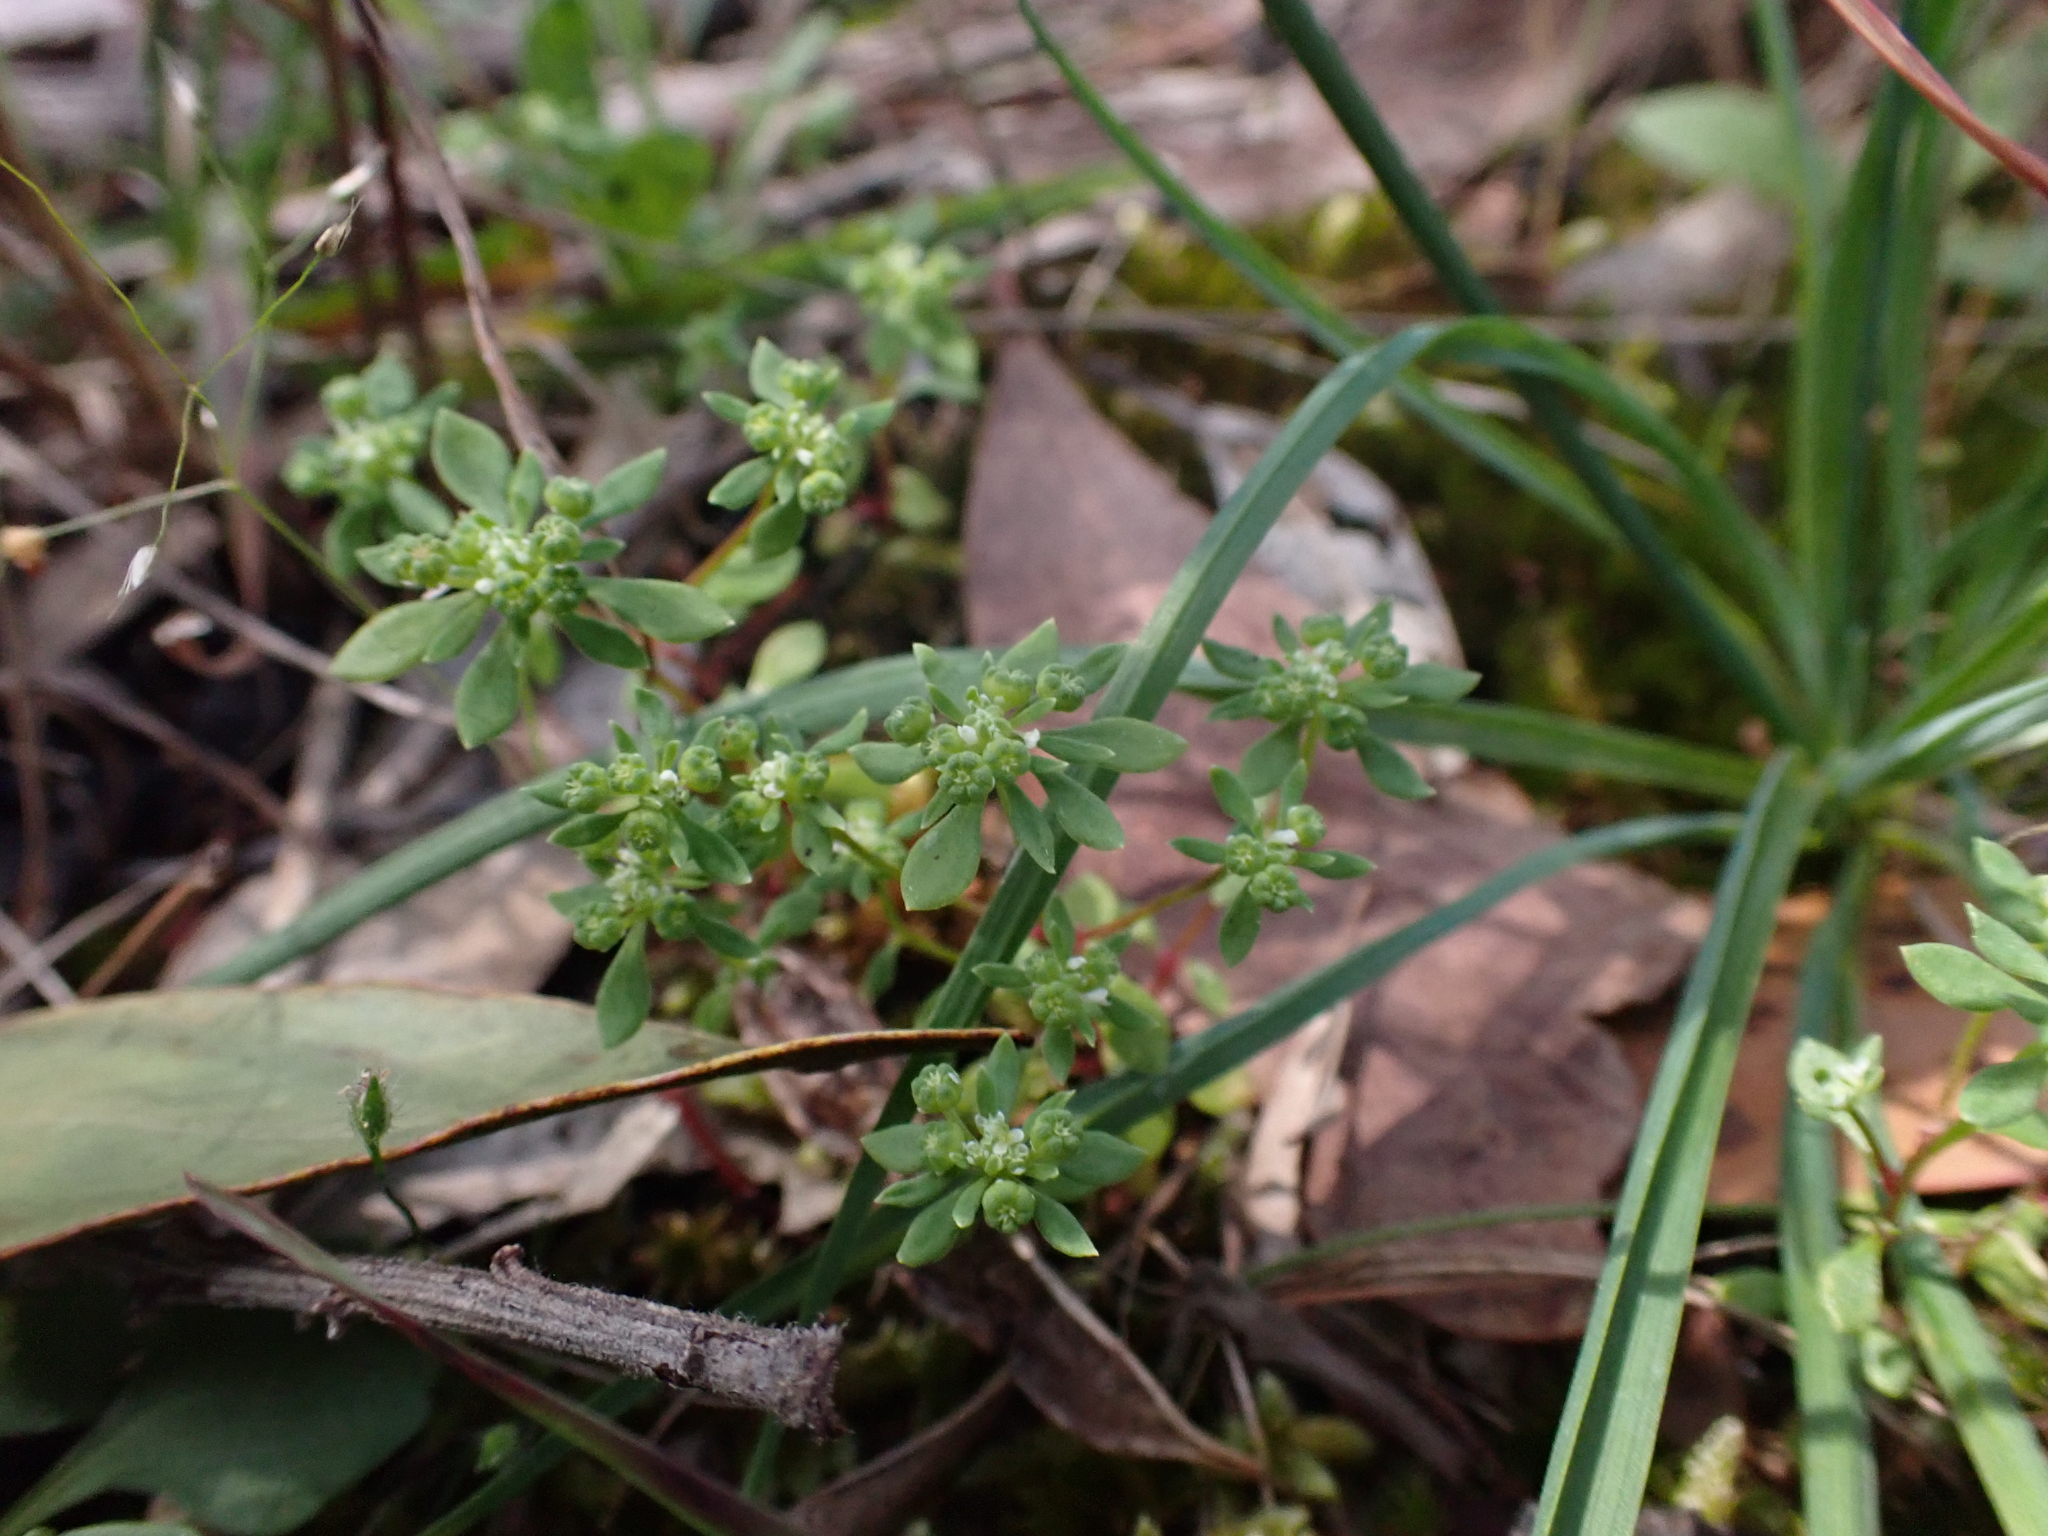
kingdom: Plantae
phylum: Tracheophyta
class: Magnoliopsida
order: Malpighiales
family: Phyllanthaceae
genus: Poranthera
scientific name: Poranthera microphylla
